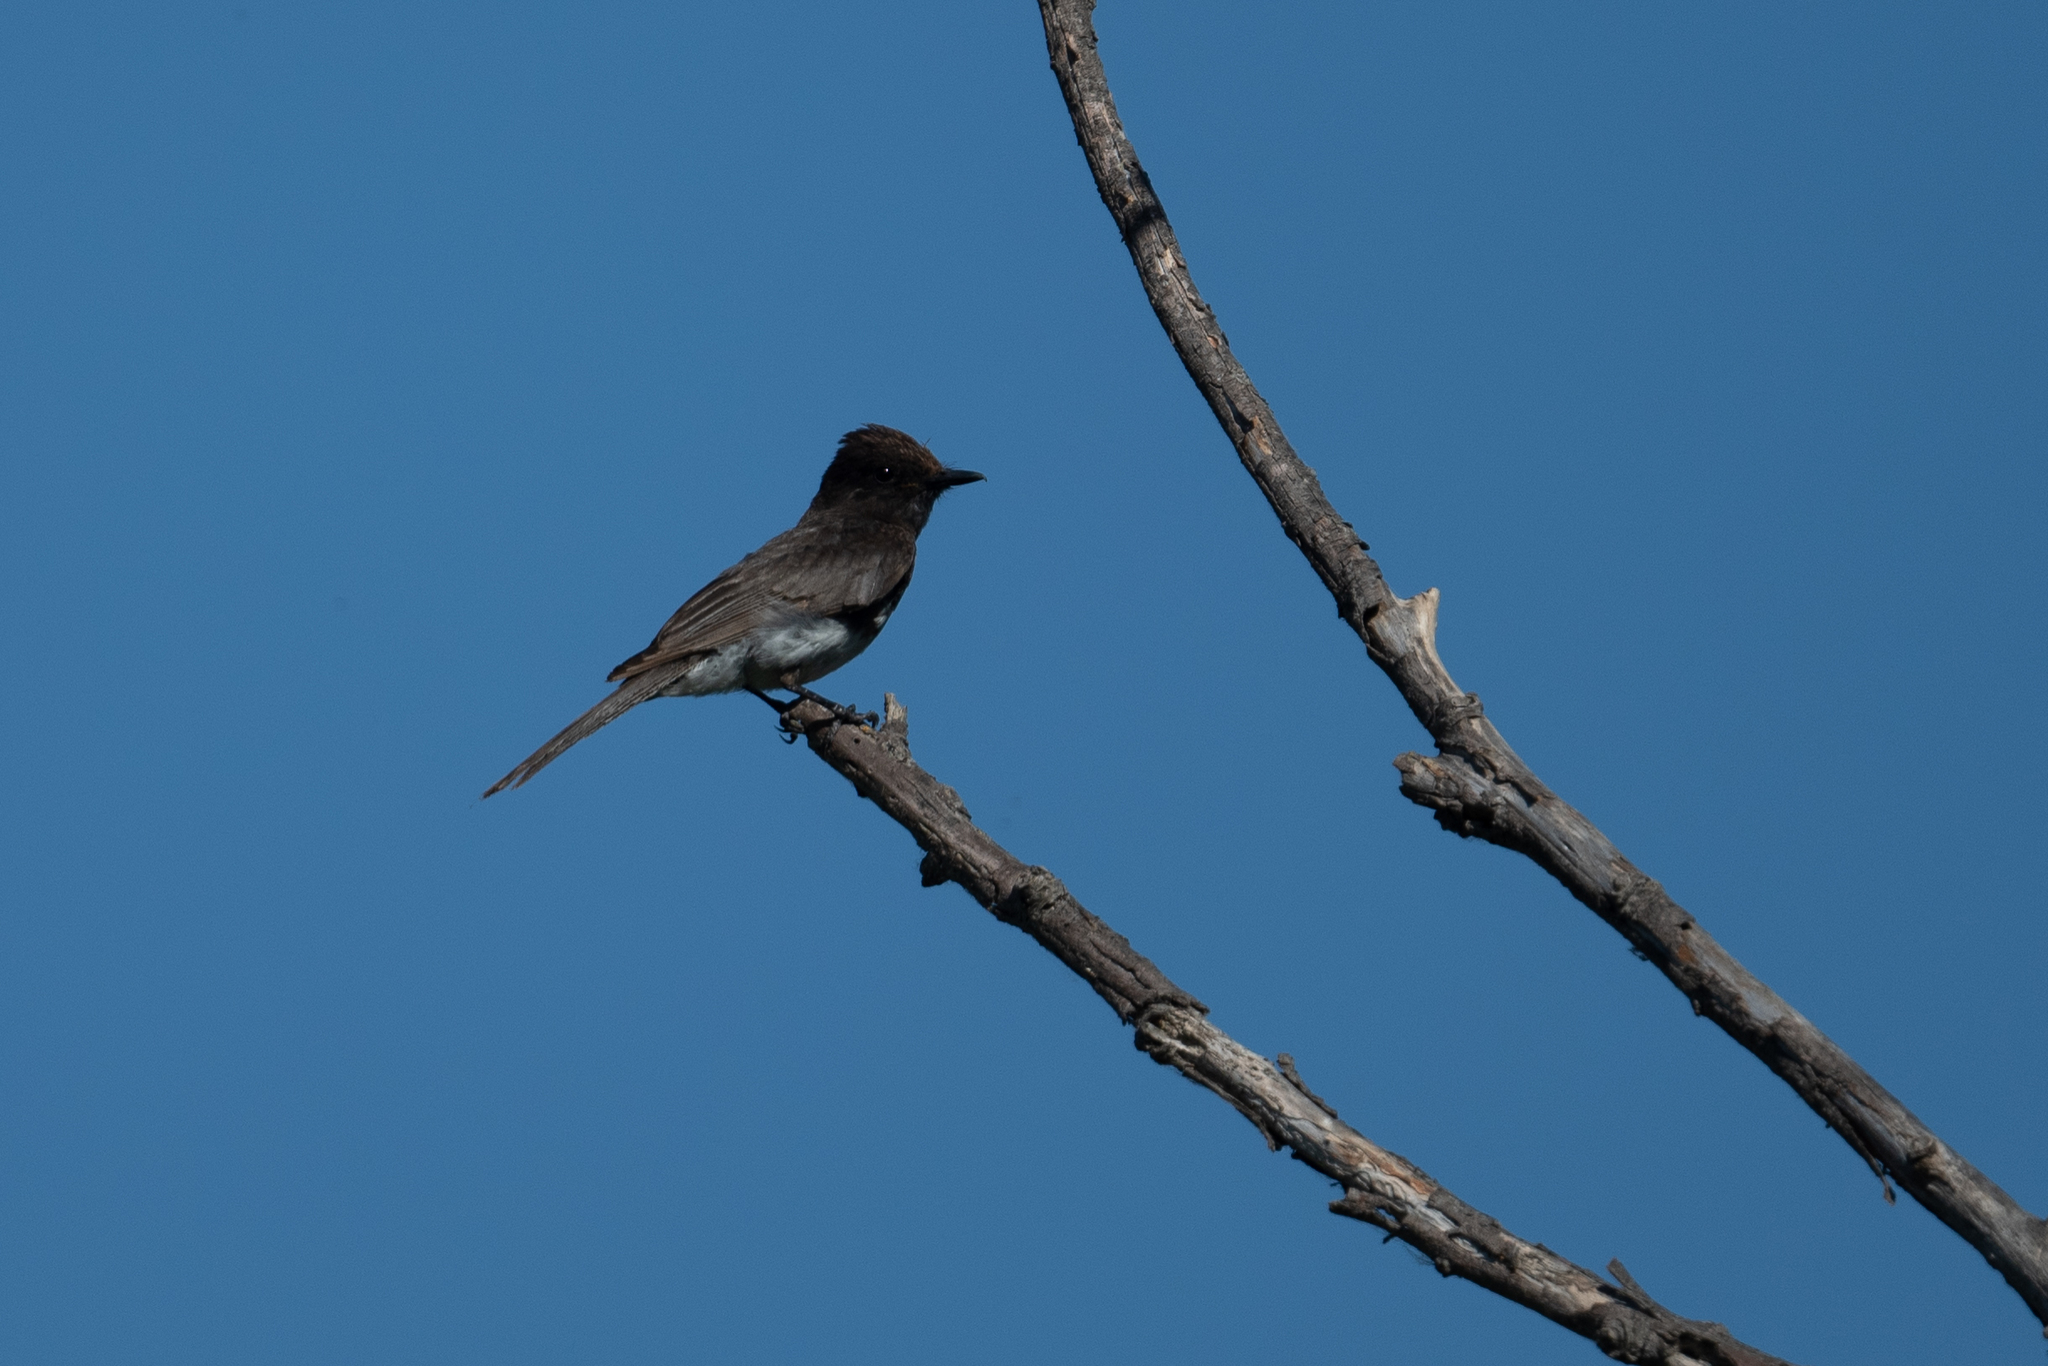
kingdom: Animalia
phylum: Chordata
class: Aves
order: Passeriformes
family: Tyrannidae
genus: Sayornis
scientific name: Sayornis nigricans
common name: Black phoebe
